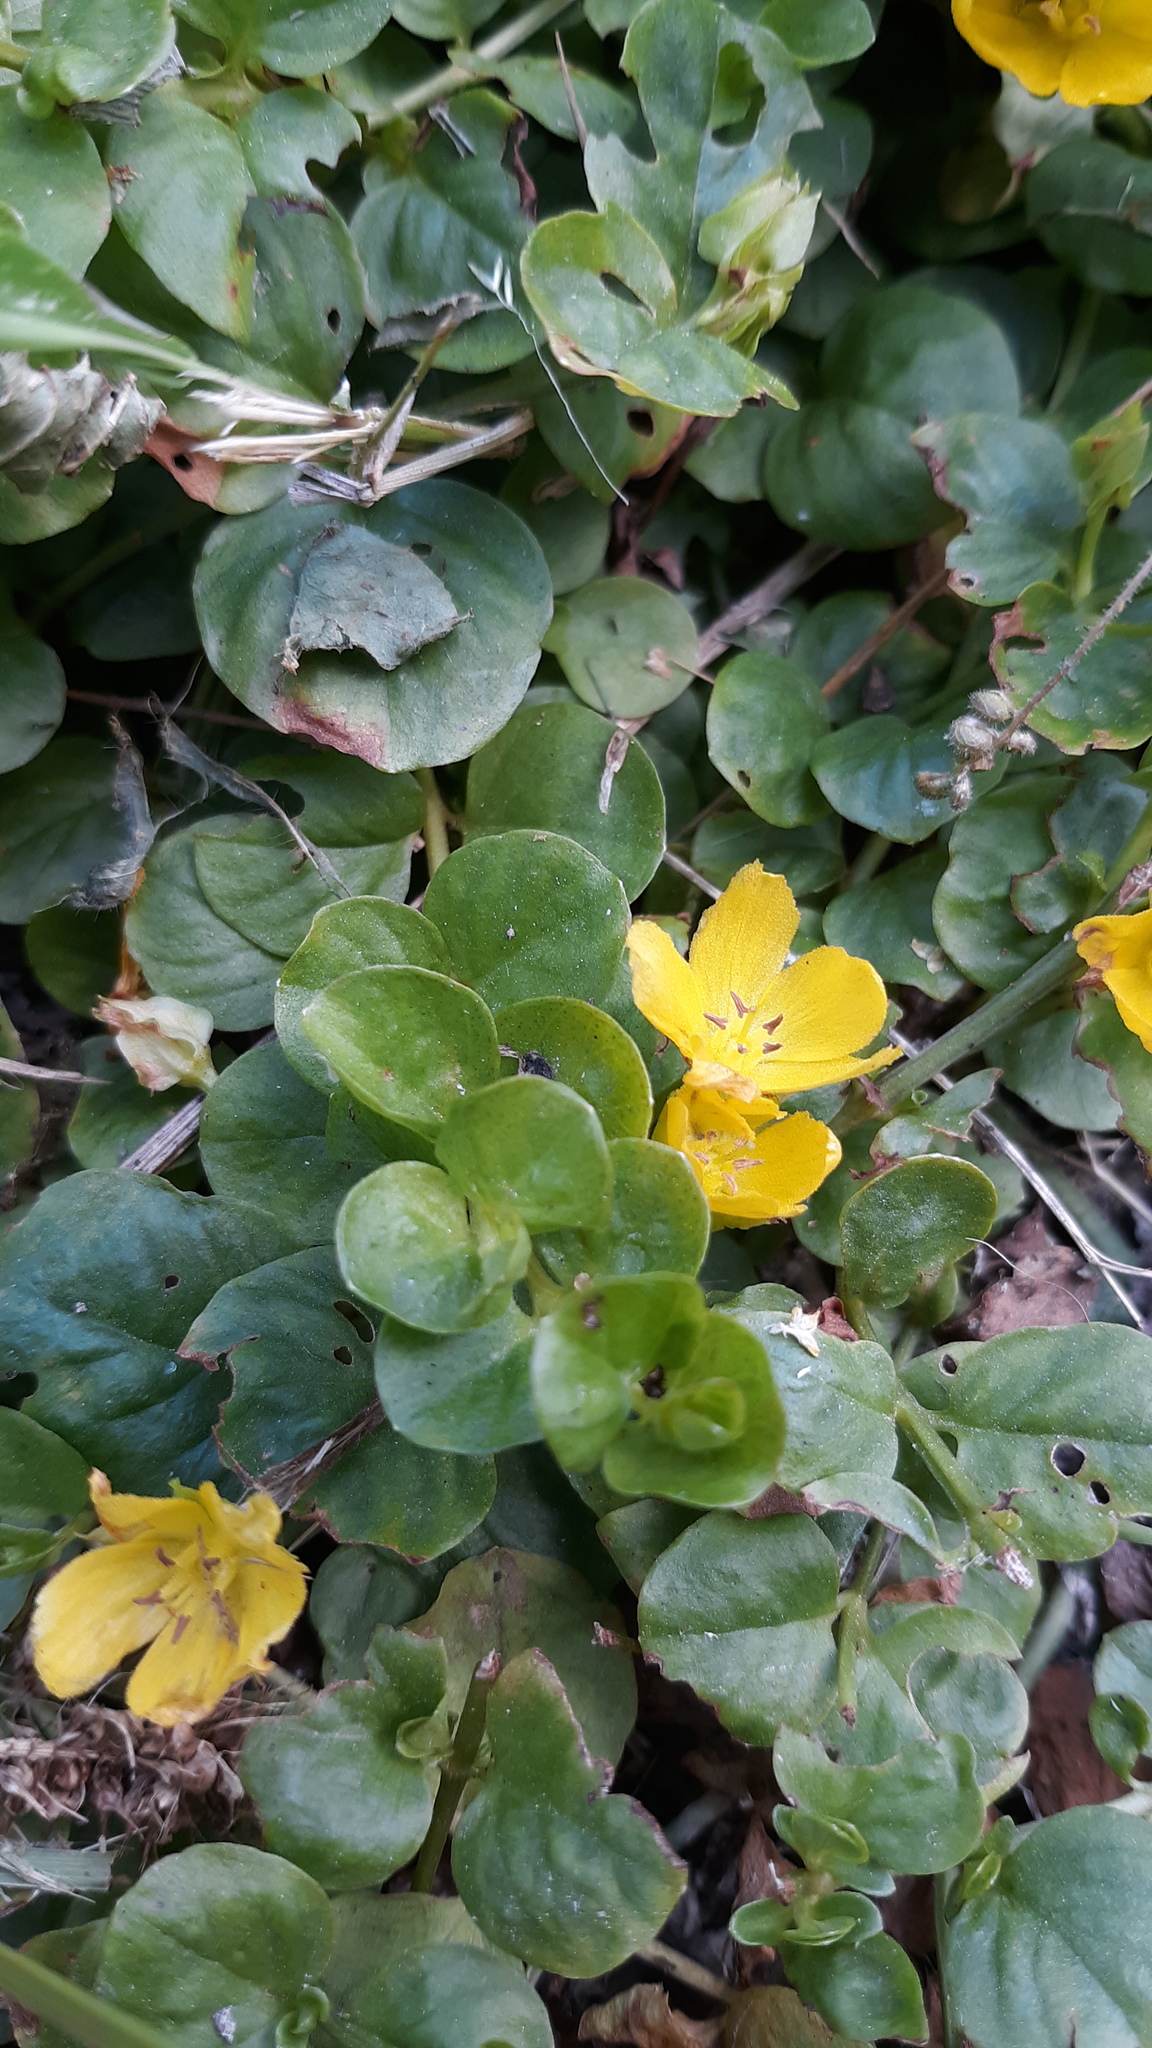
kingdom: Plantae
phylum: Tracheophyta
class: Magnoliopsida
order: Ericales
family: Primulaceae
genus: Lysimachia
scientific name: Lysimachia nummularia
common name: Moneywort
